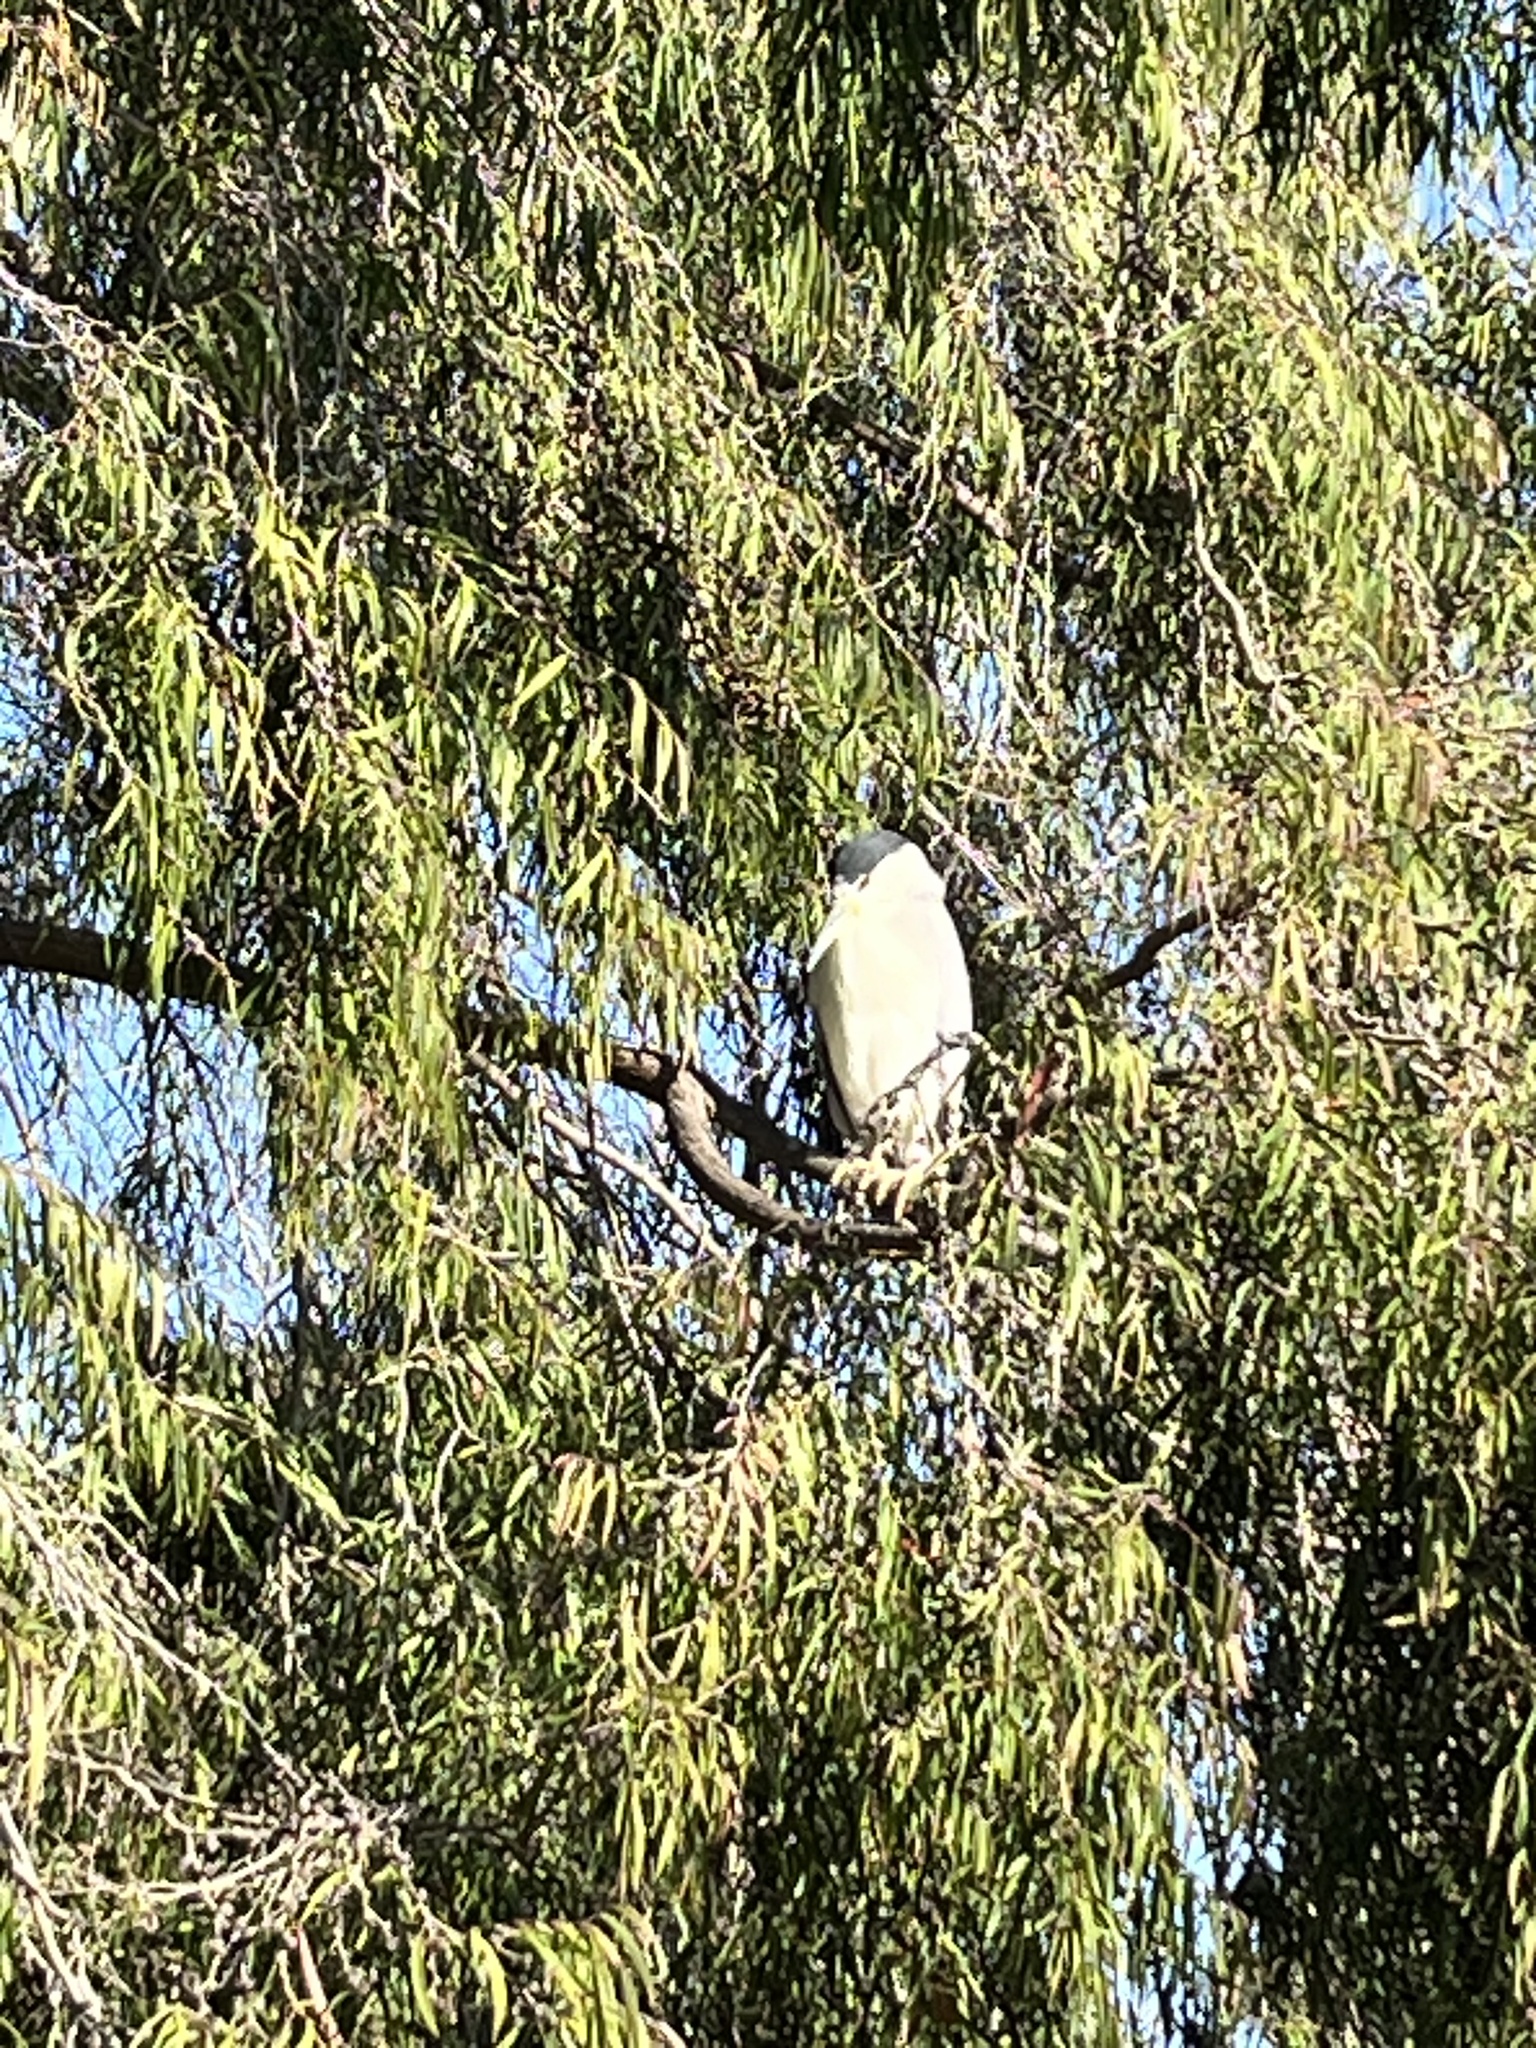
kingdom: Animalia
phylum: Chordata
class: Aves
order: Pelecaniformes
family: Ardeidae
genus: Nycticorax
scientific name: Nycticorax nycticorax
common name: Black-crowned night heron
